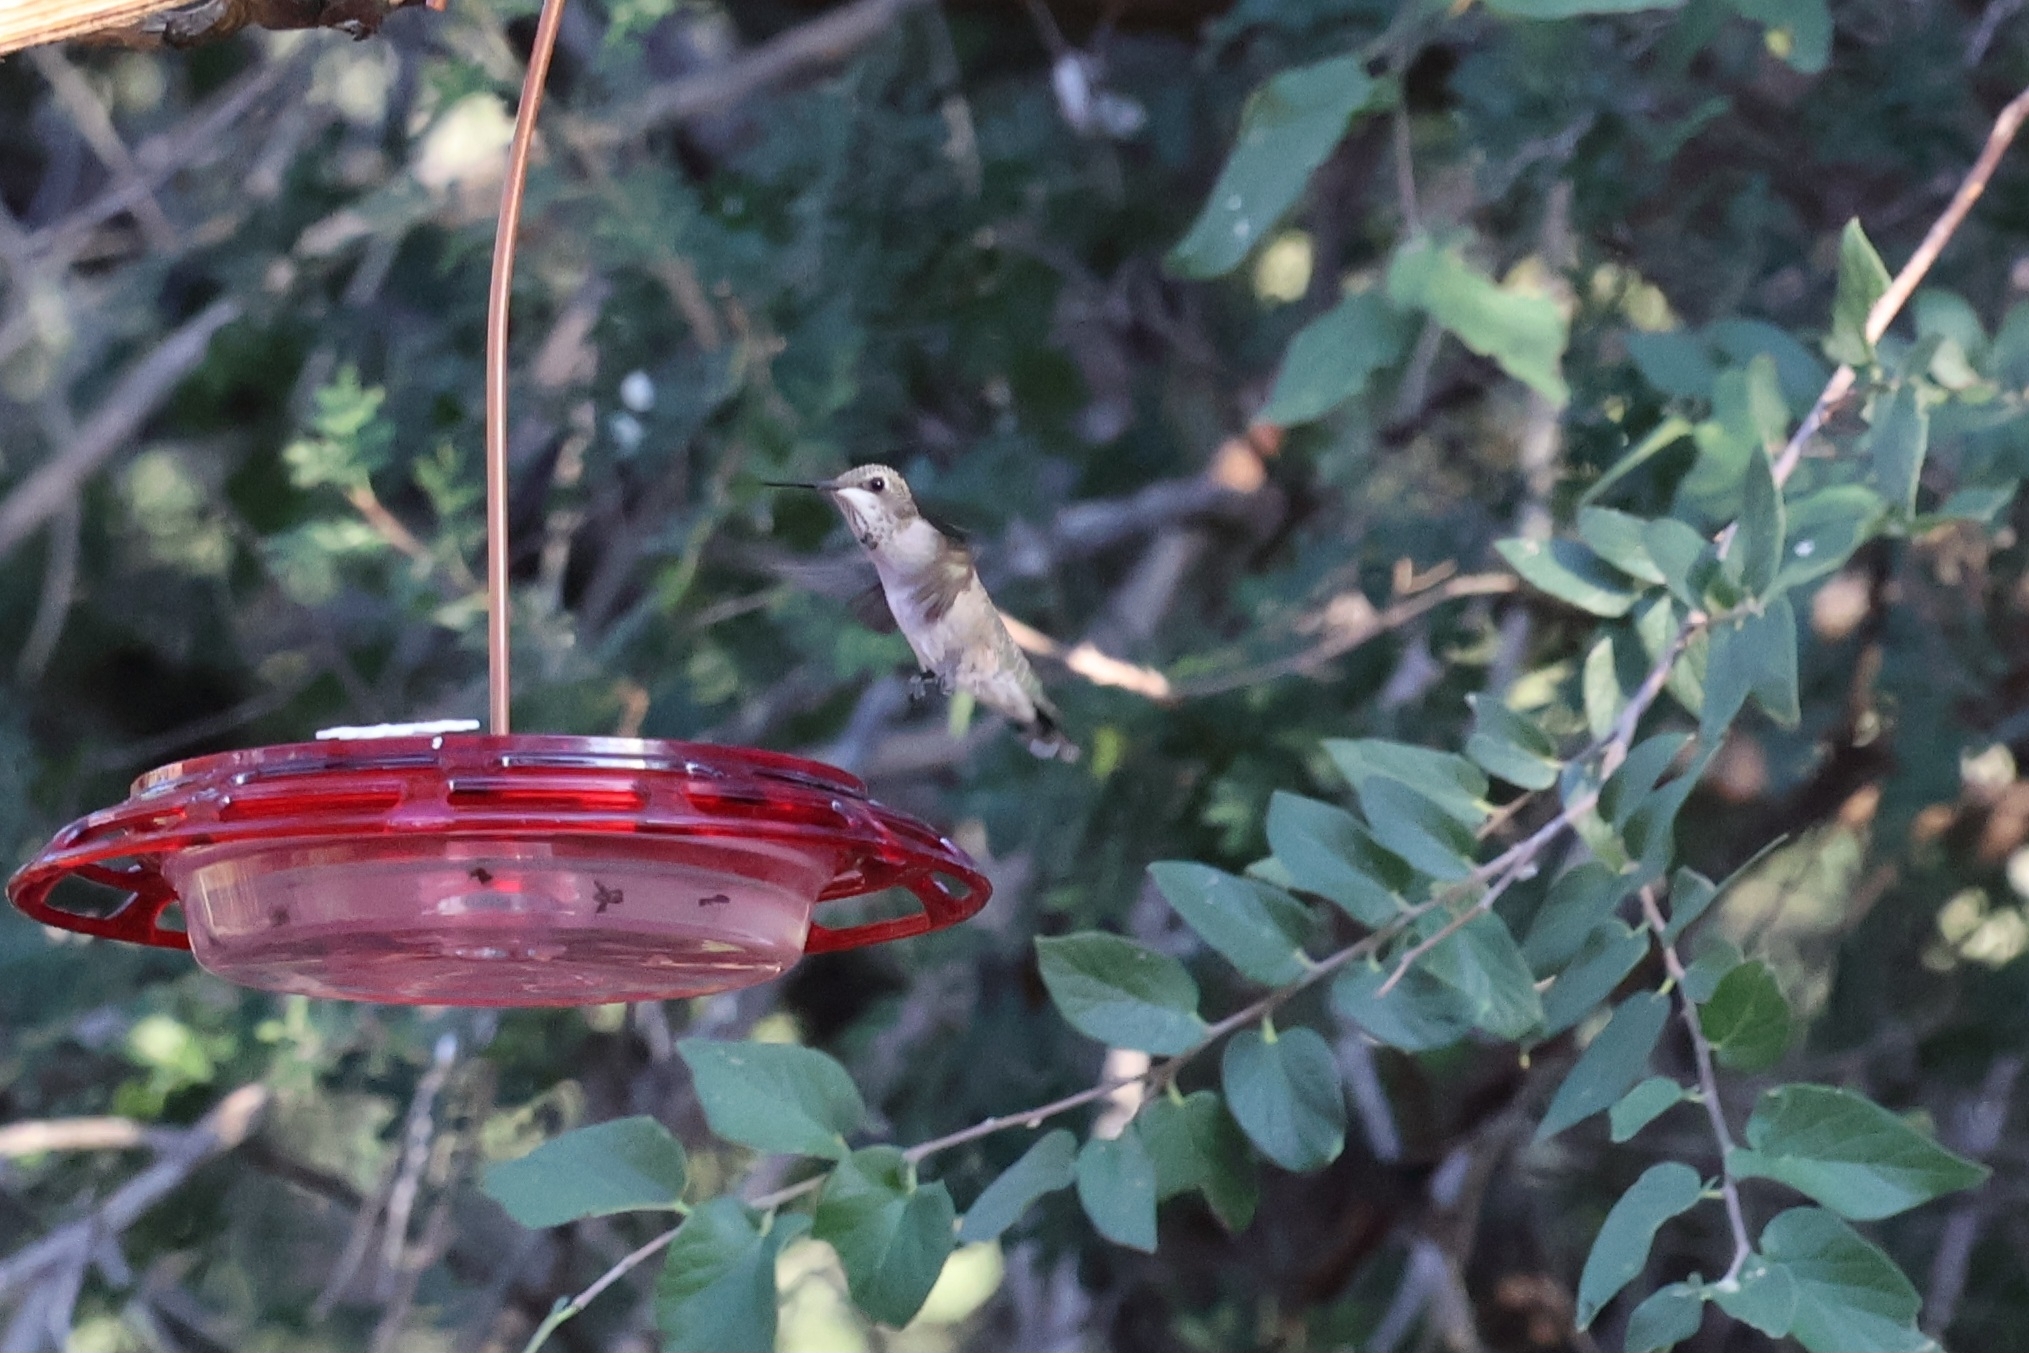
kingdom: Animalia
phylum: Chordata
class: Aves
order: Apodiformes
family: Trochilidae
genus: Archilochus
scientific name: Archilochus alexandri
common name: Black-chinned hummingbird
